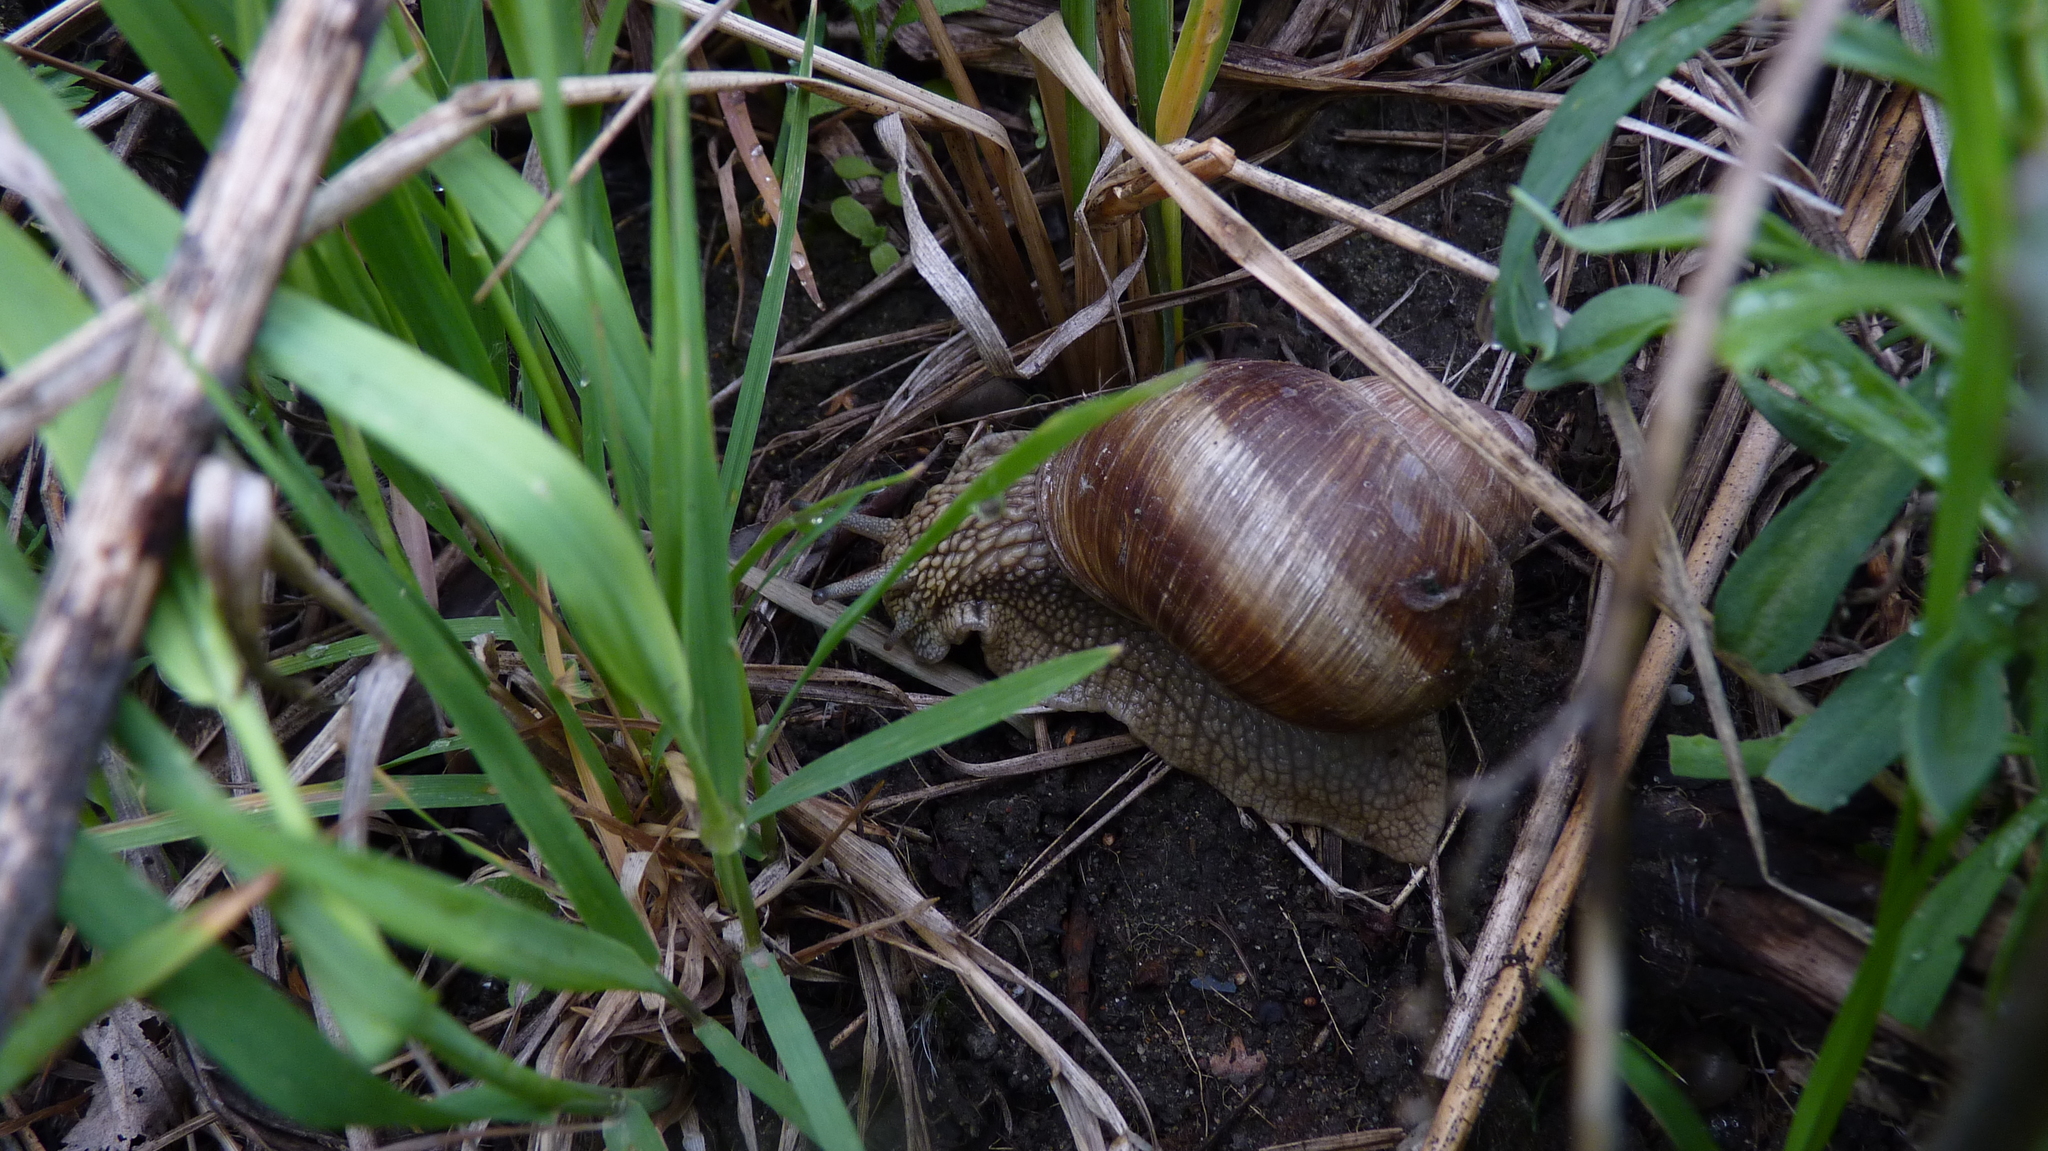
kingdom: Animalia
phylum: Mollusca
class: Gastropoda
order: Stylommatophora
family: Helicidae
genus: Helix
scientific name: Helix pomatia
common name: Roman snail
